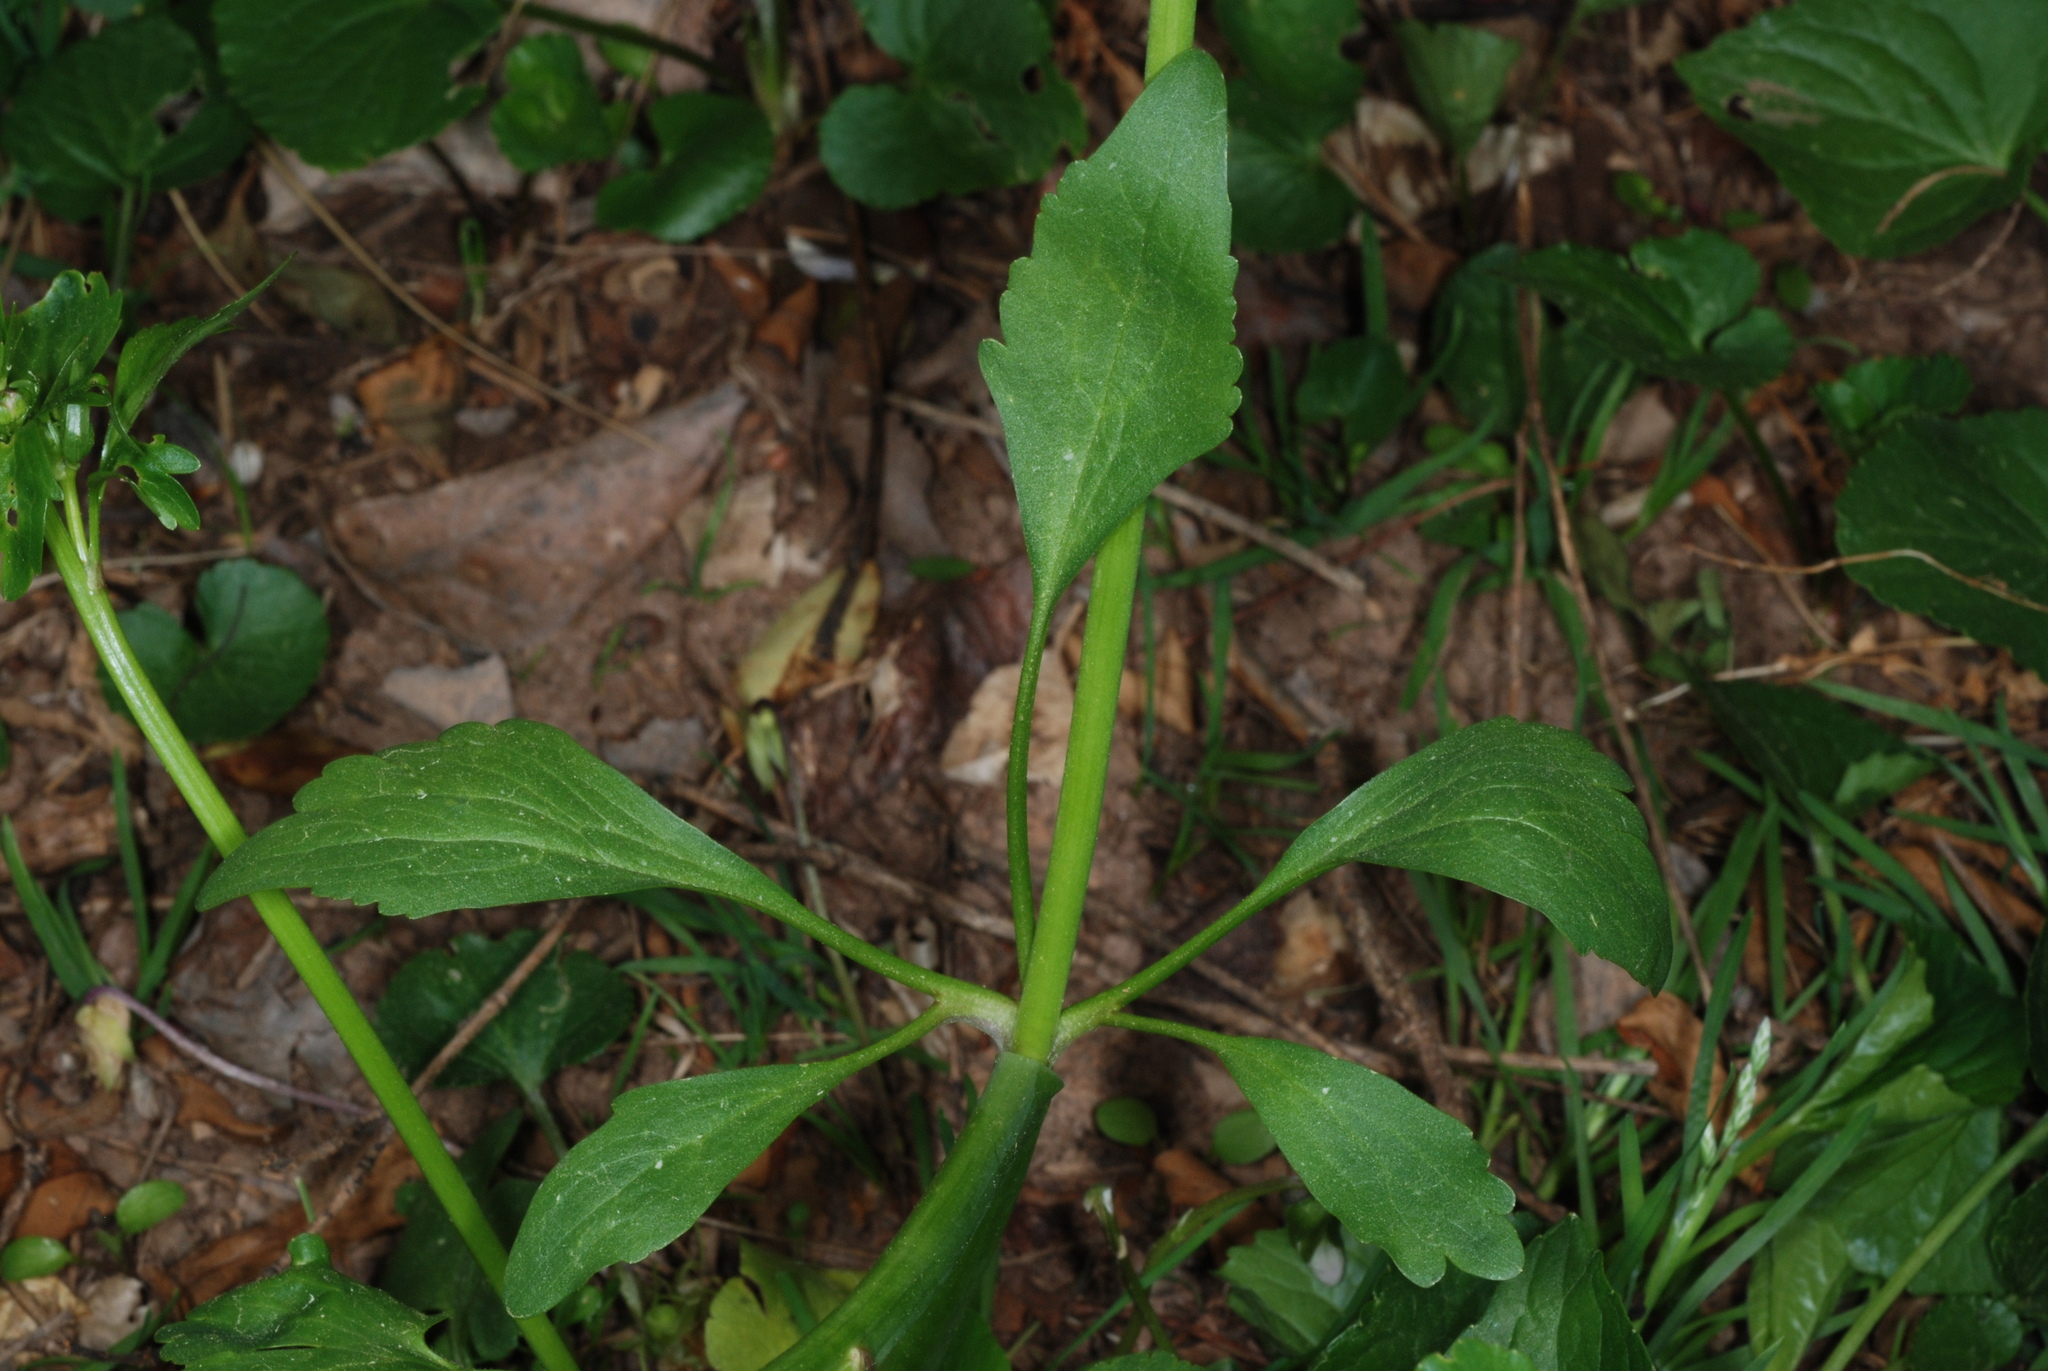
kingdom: Plantae
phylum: Tracheophyta
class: Magnoliopsida
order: Ranunculales
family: Ranunculaceae
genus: Ranunculus
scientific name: Ranunculus abortivus
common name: Early wood buttercup
